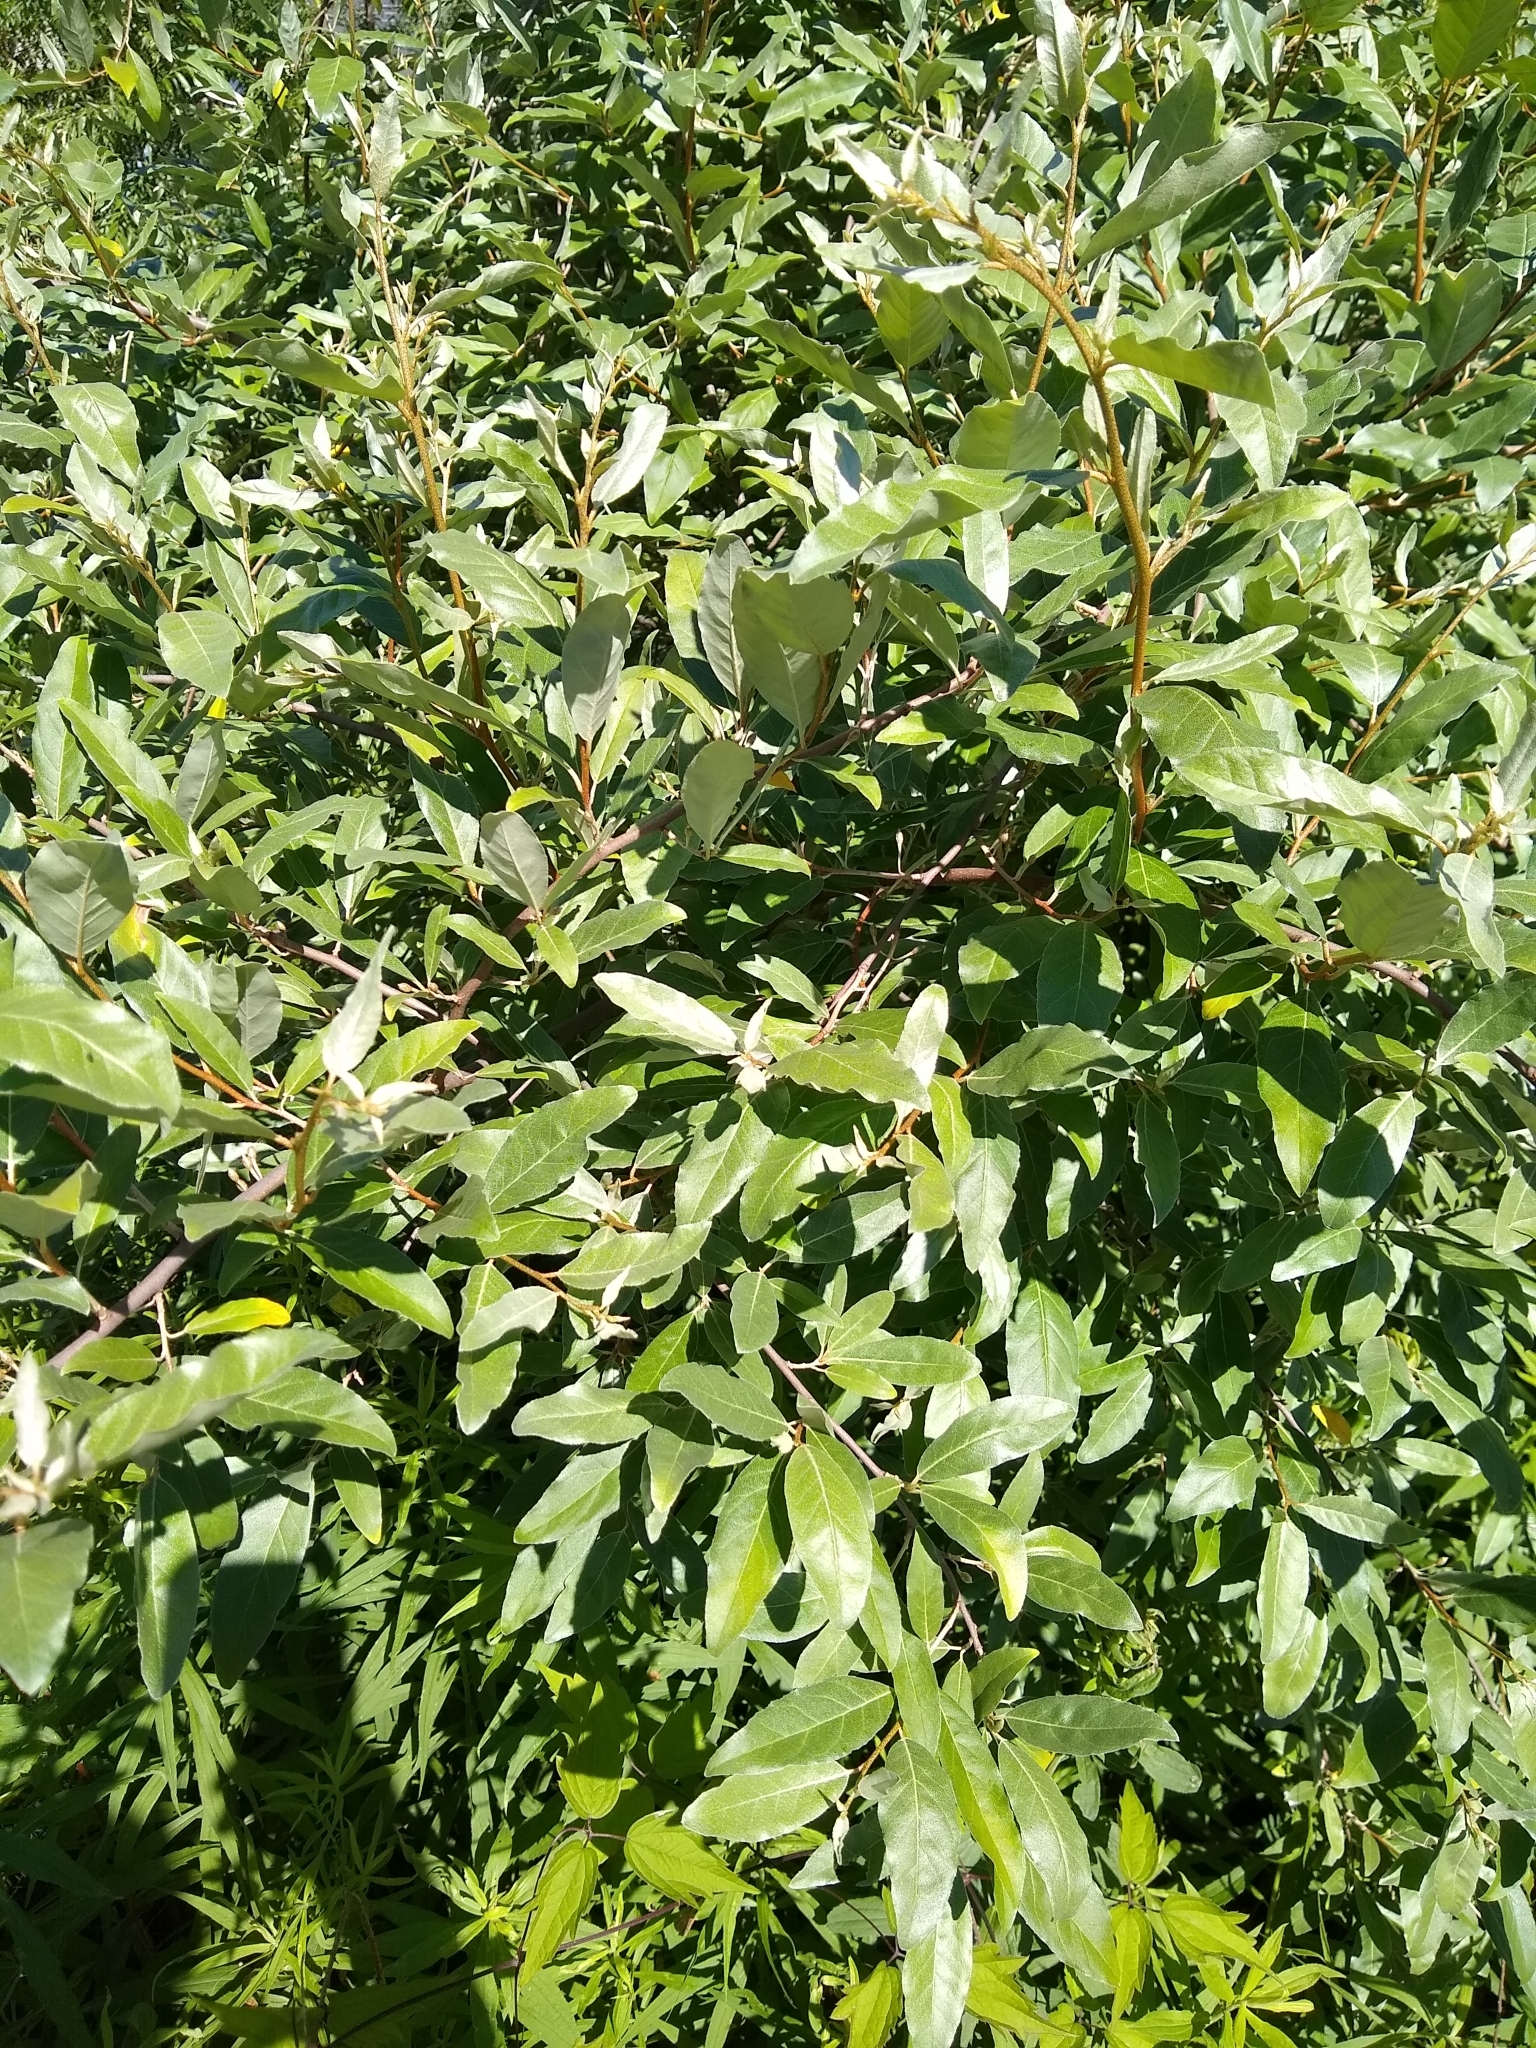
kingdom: Plantae
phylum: Tracheophyta
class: Magnoliopsida
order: Rosales
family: Elaeagnaceae
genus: Elaeagnus
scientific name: Elaeagnus umbellata
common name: Autumn olive
